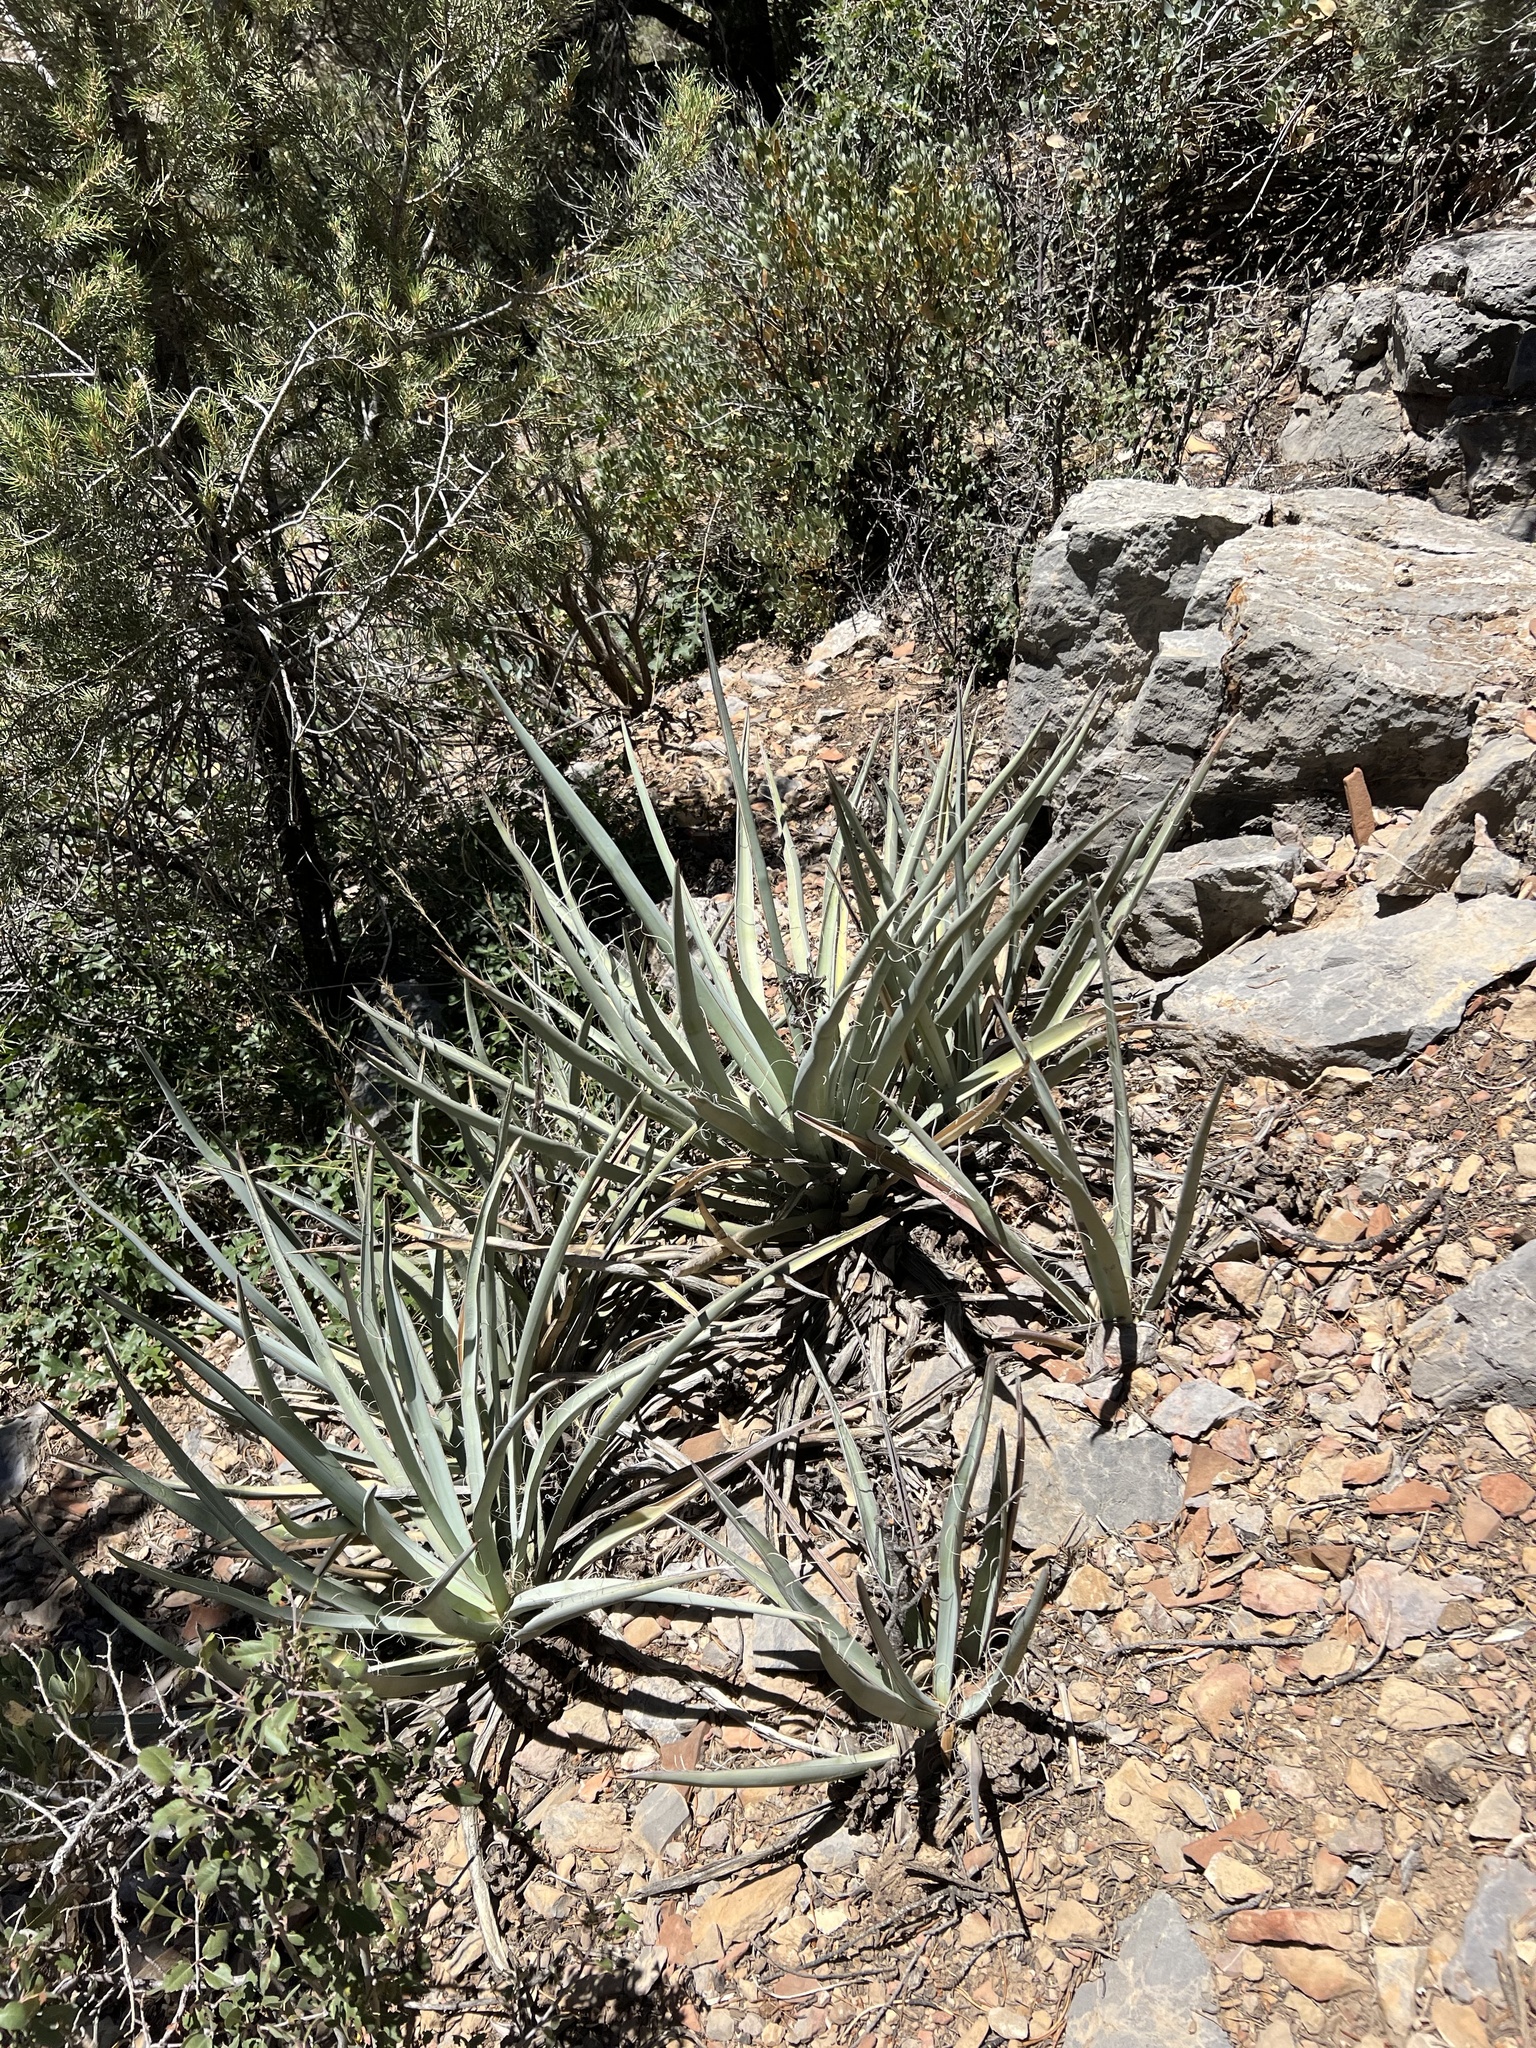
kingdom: Plantae
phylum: Tracheophyta
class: Liliopsida
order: Asparagales
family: Asparagaceae
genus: Yucca
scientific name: Yucca baccata
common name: Banana yucca
